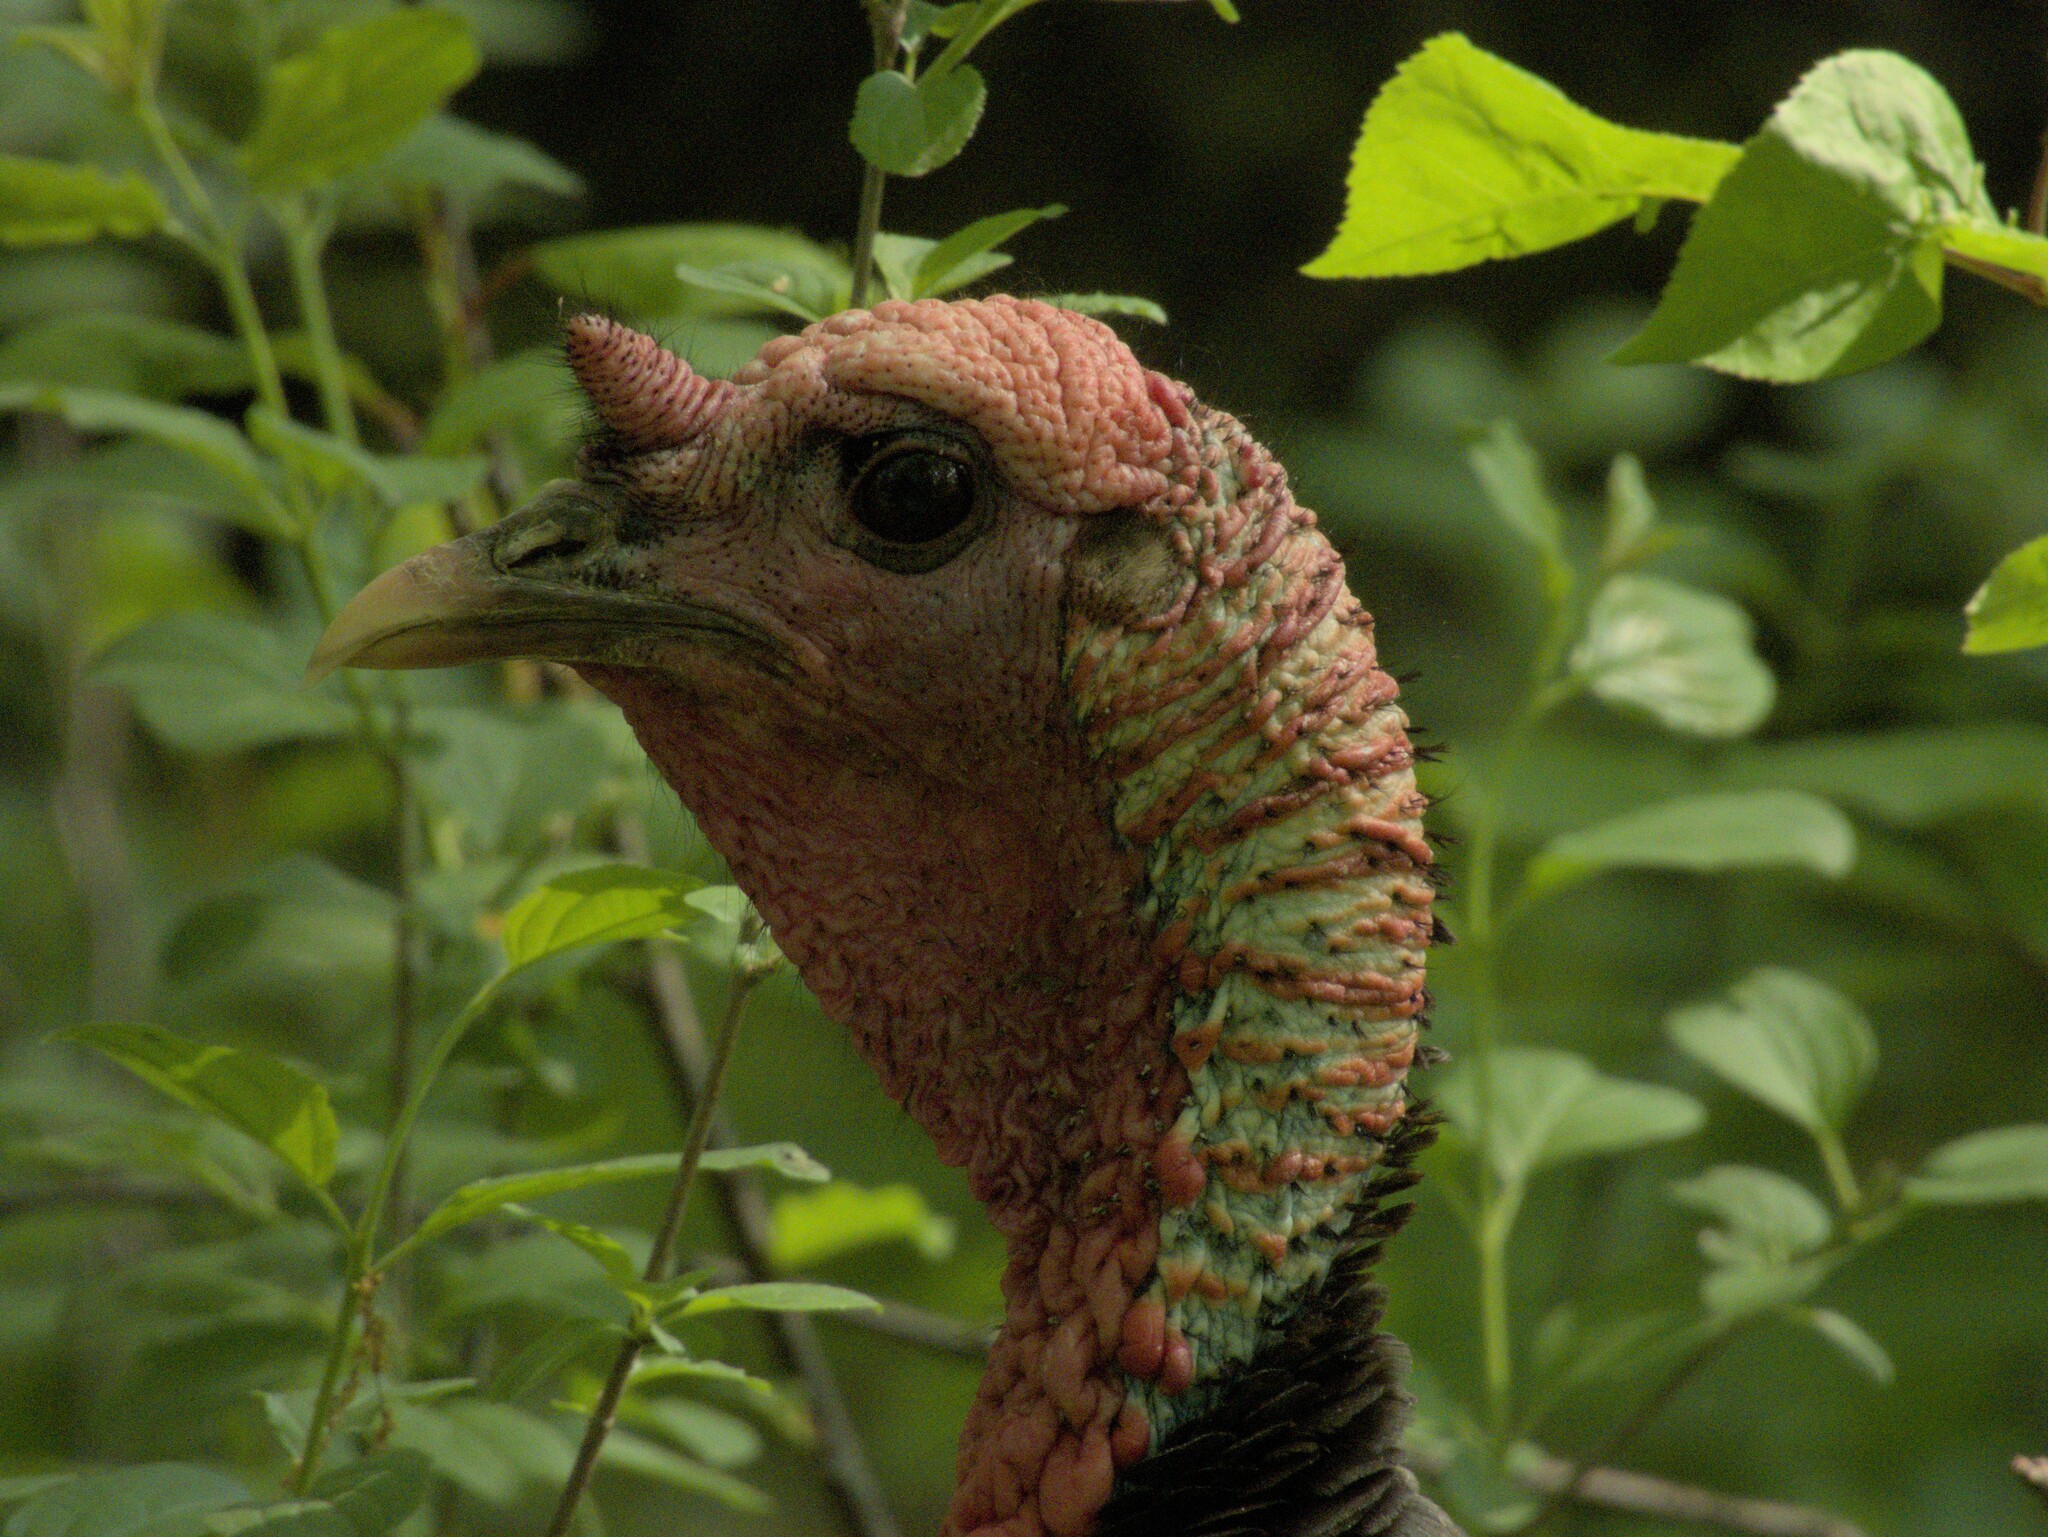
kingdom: Animalia
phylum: Chordata
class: Aves
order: Galliformes
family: Phasianidae
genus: Meleagris
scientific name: Meleagris gallopavo
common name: Wild turkey
